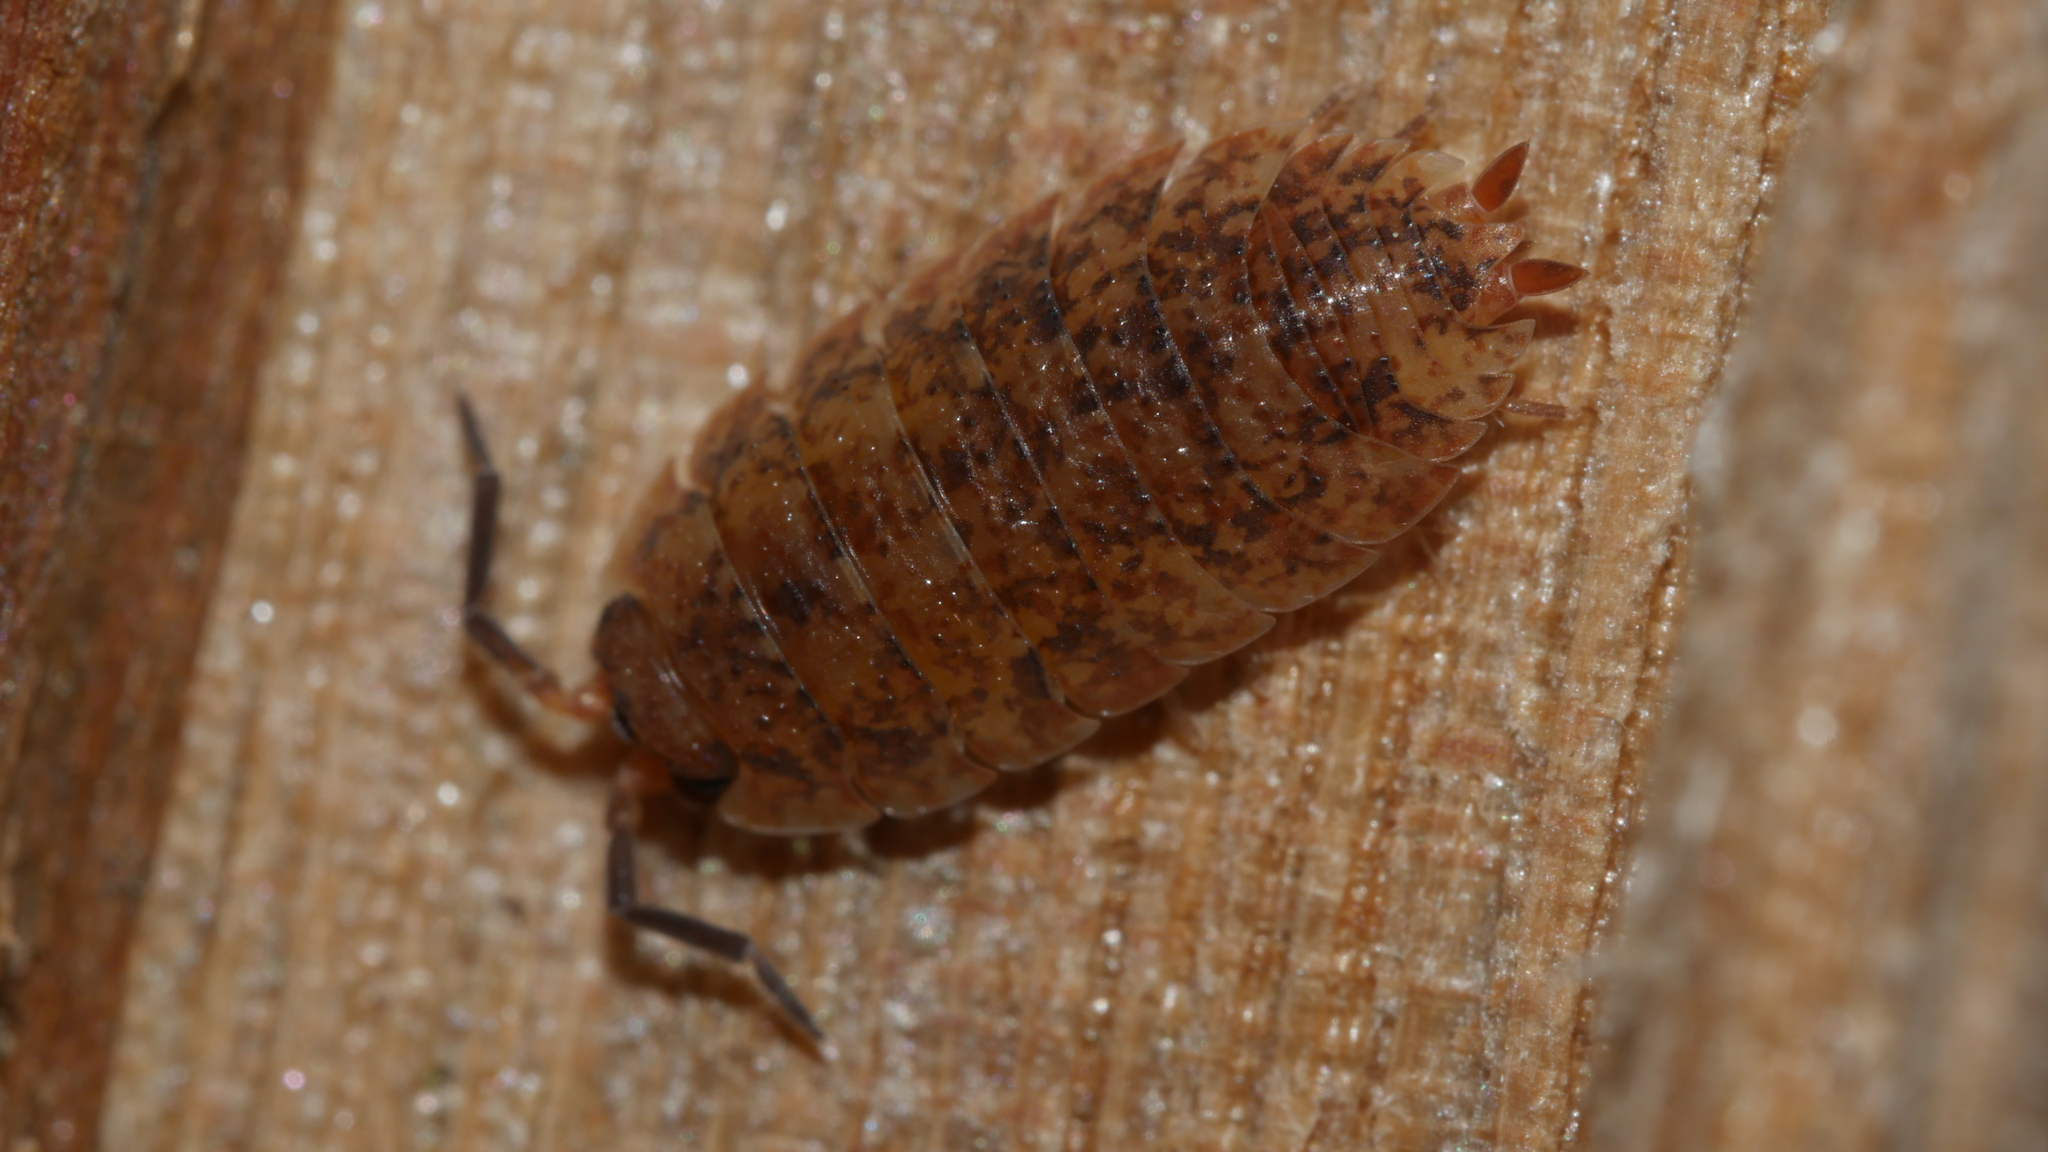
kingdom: Animalia
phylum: Arthropoda
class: Malacostraca
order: Isopoda
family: Porcellionidae
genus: Porcellio
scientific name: Porcellio scaber
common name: Common rough woodlouse
